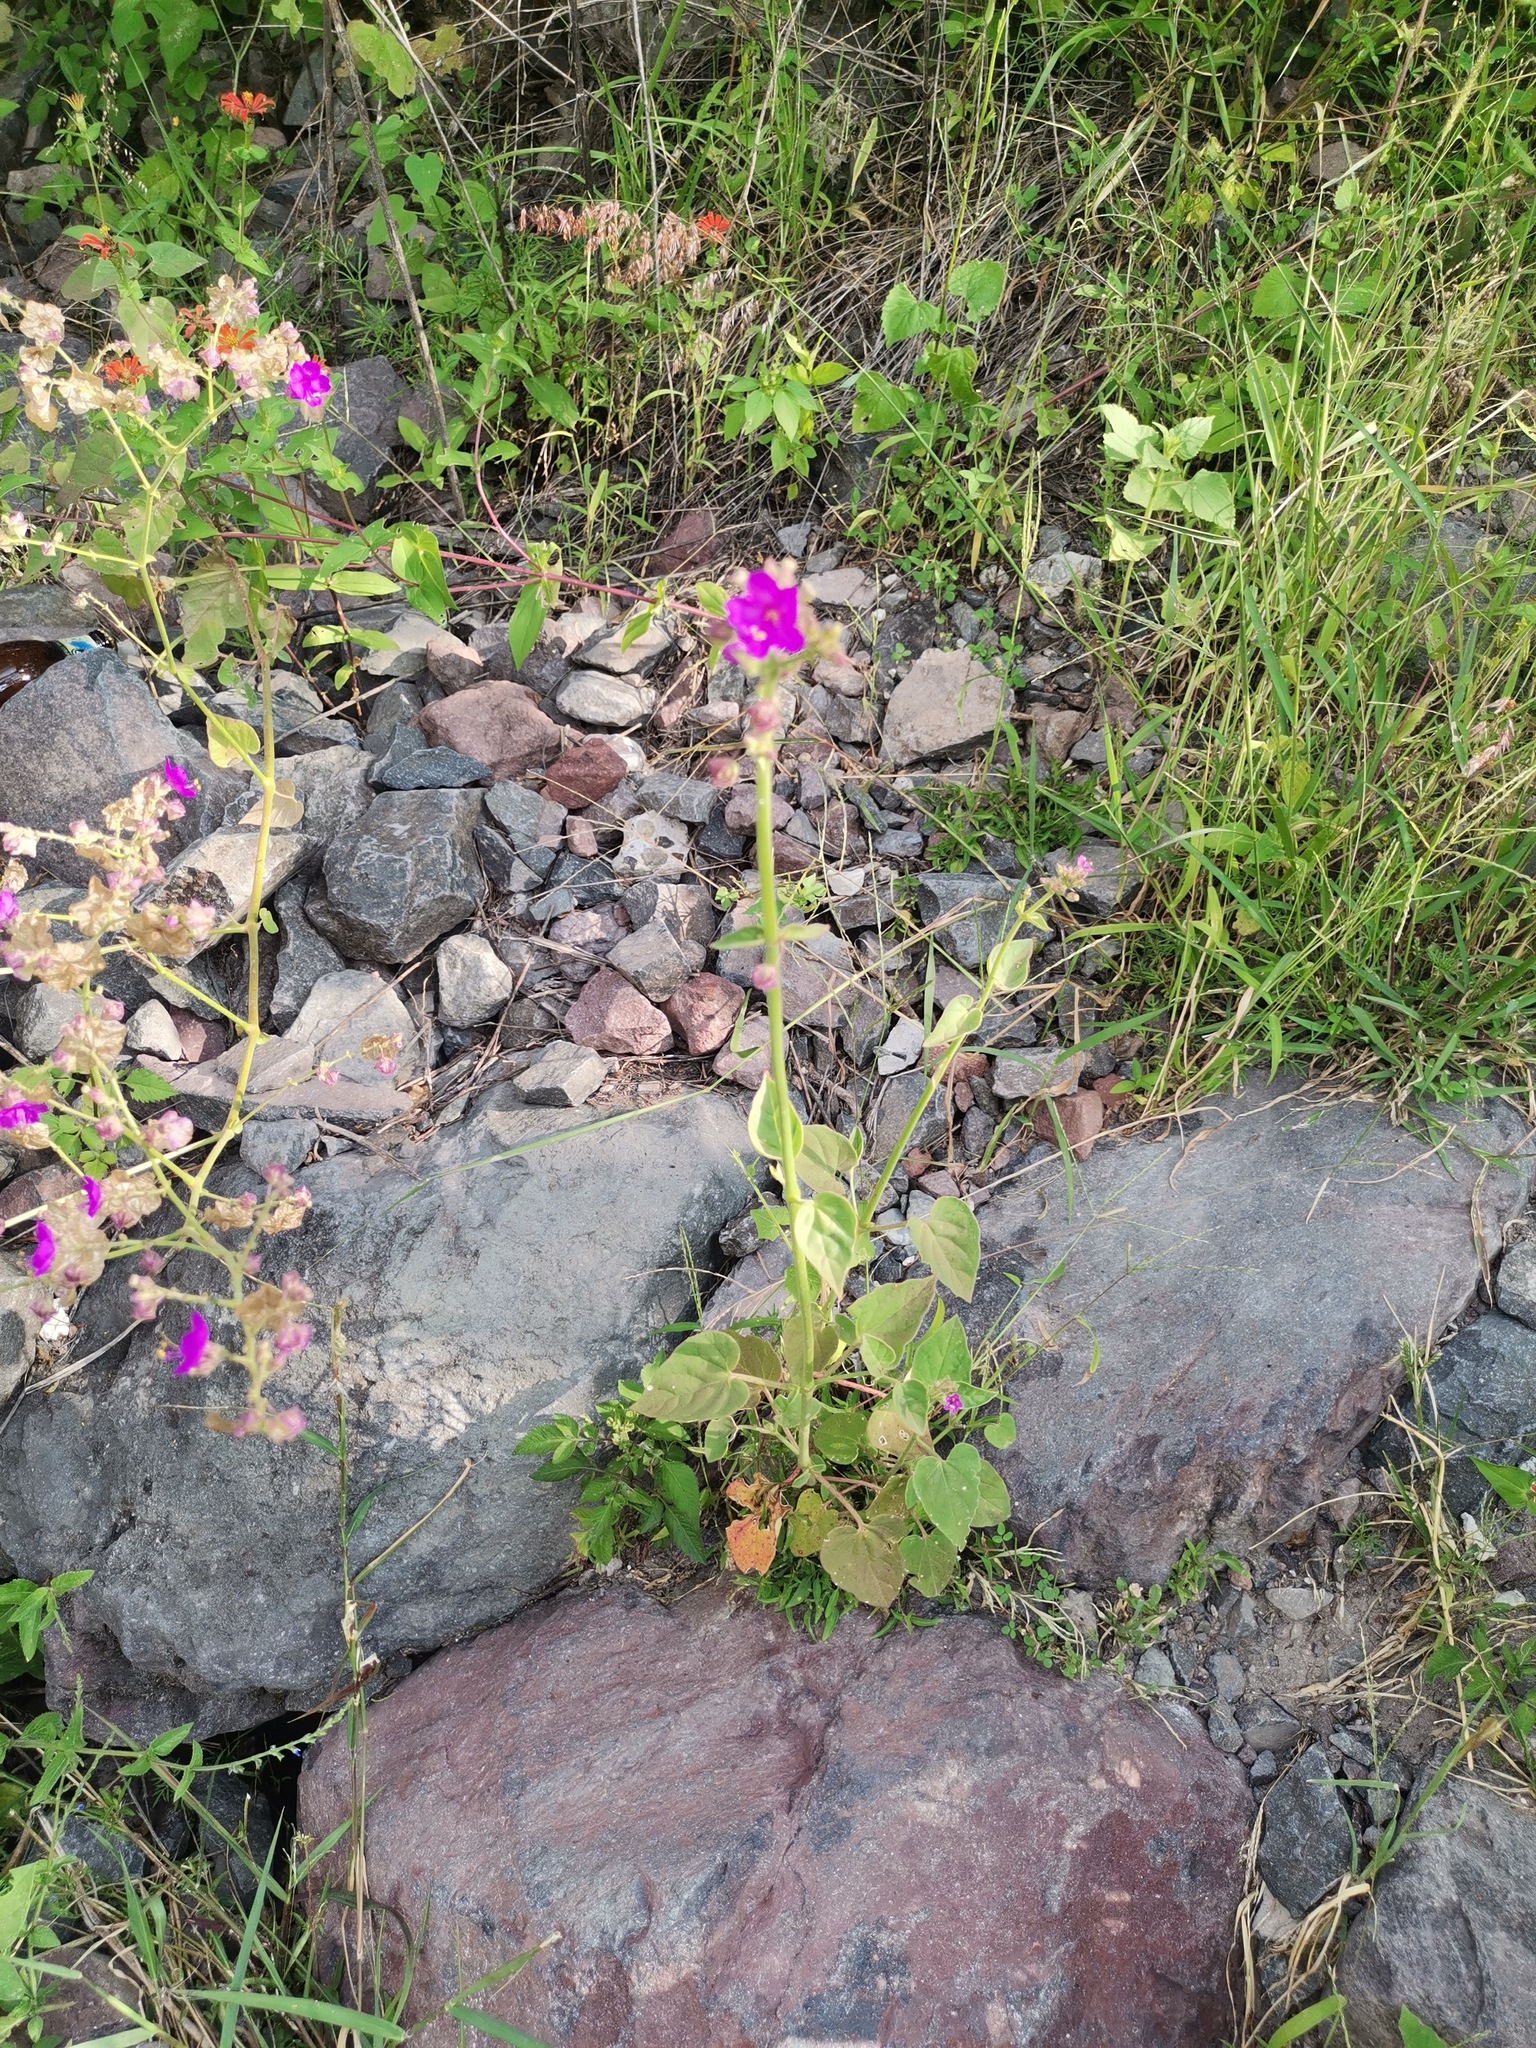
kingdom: Plantae
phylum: Tracheophyta
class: Magnoliopsida
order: Caryophyllales
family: Nyctaginaceae
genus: Boerhavia
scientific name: Boerhavia coccinea
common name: Scarlet spiderling
